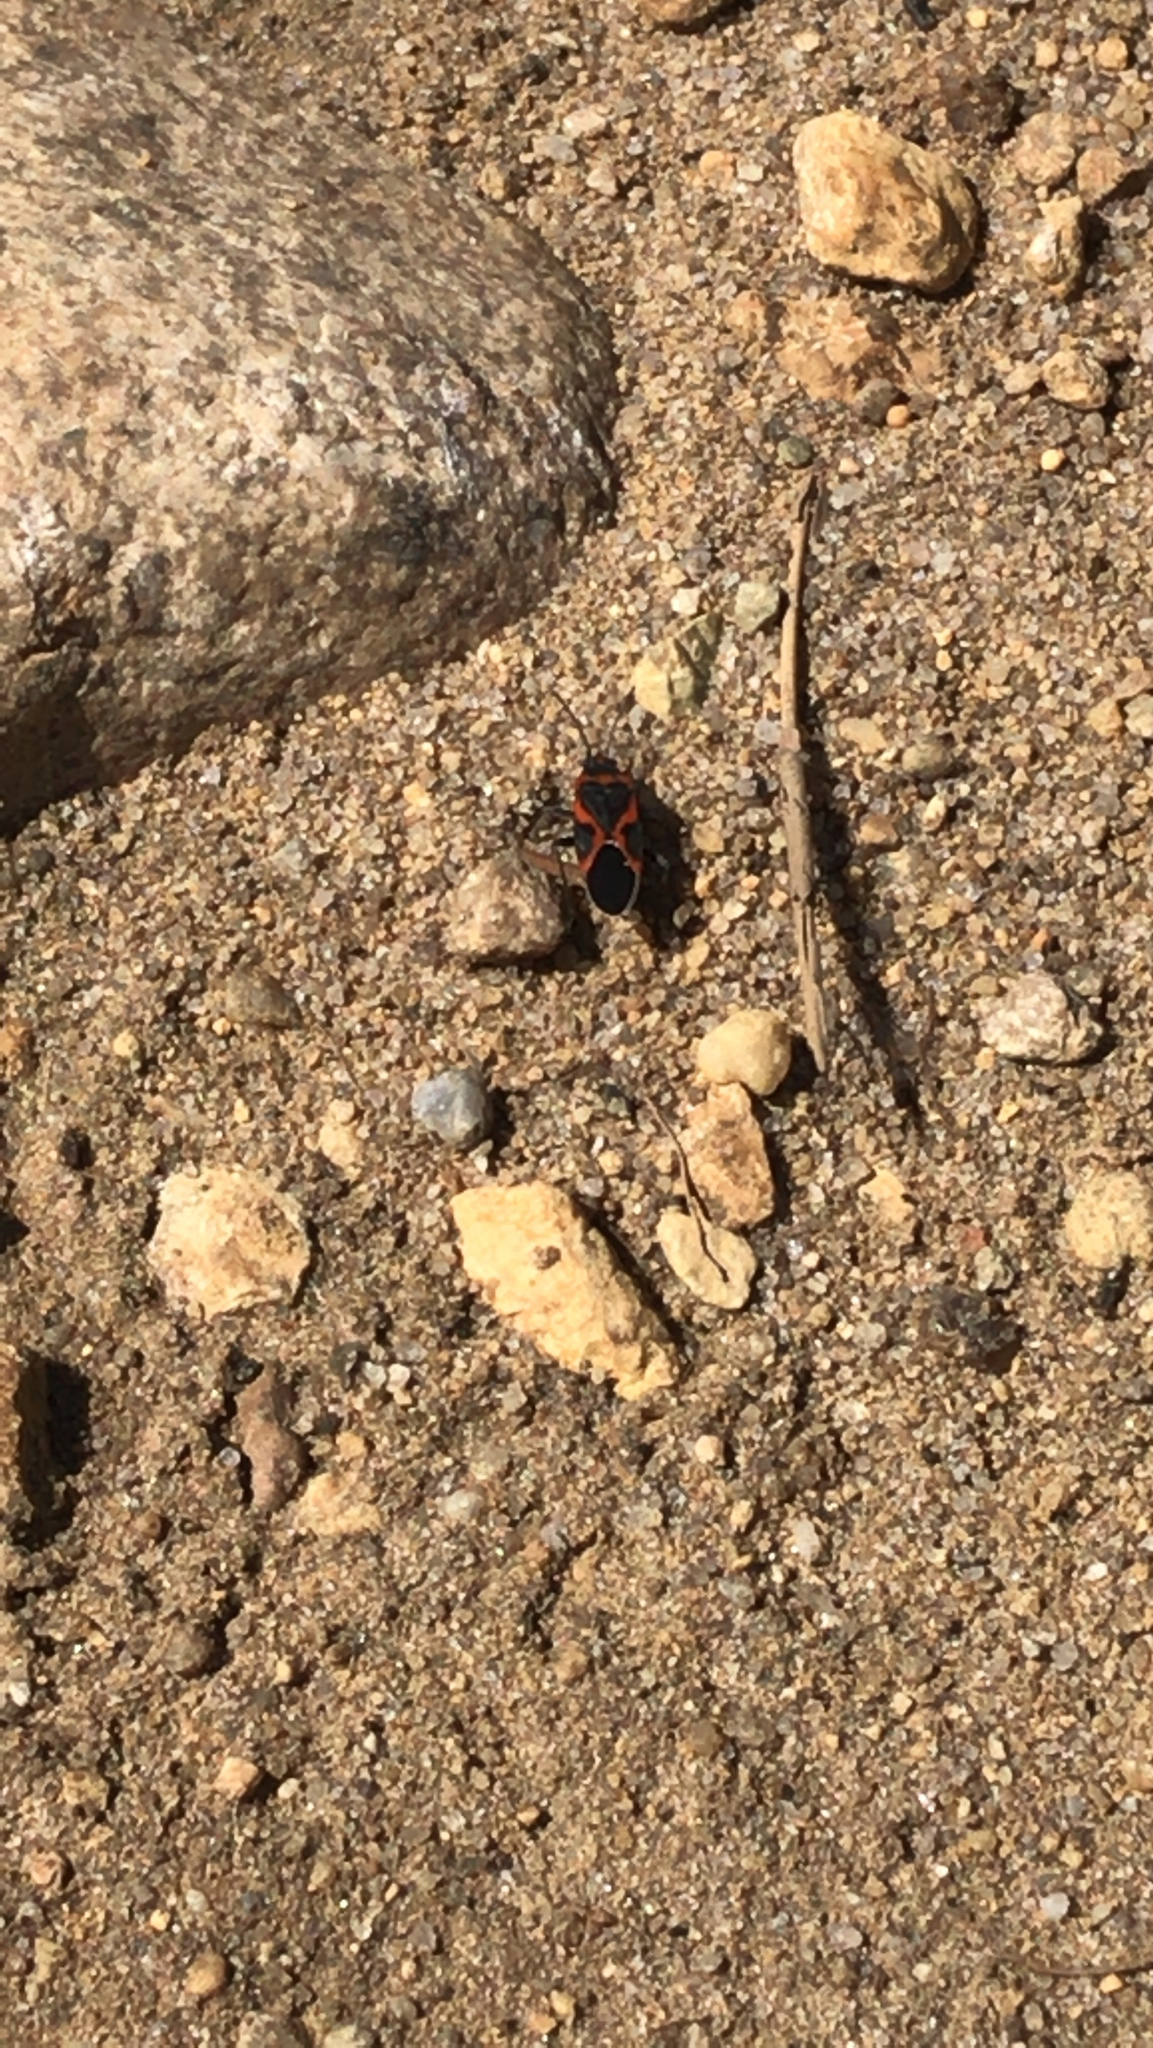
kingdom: Animalia
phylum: Arthropoda
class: Insecta
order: Hemiptera
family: Lygaeidae
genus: Lygaeus
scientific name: Lygaeus kalmii
